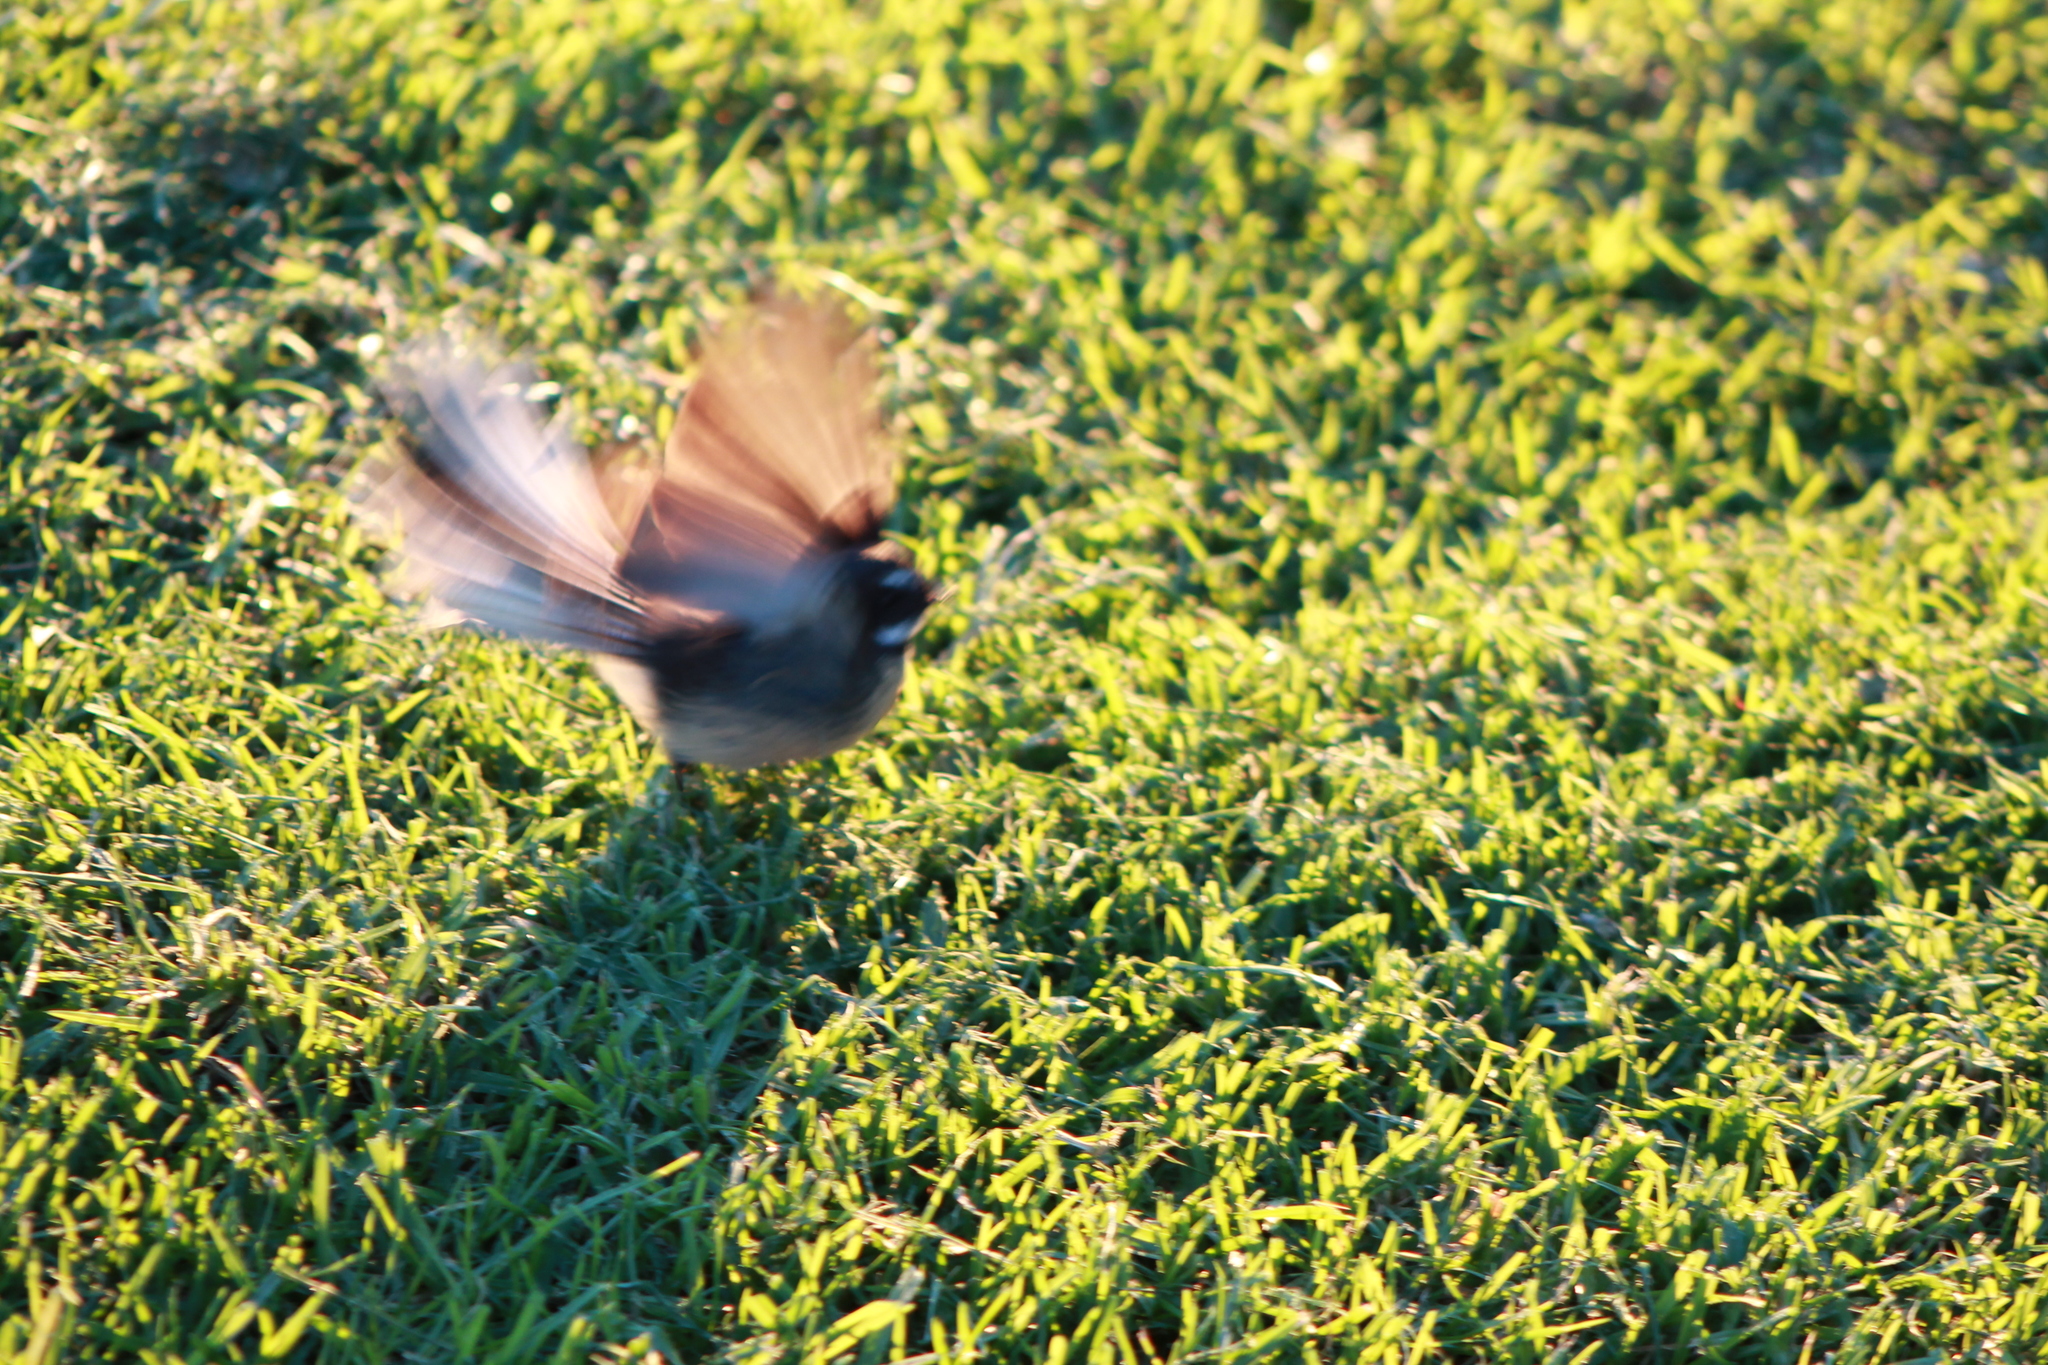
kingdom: Animalia
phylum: Chordata
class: Aves
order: Passeriformes
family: Rhipiduridae
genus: Rhipidura
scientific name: Rhipidura fuliginosa
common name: New zealand fantail
